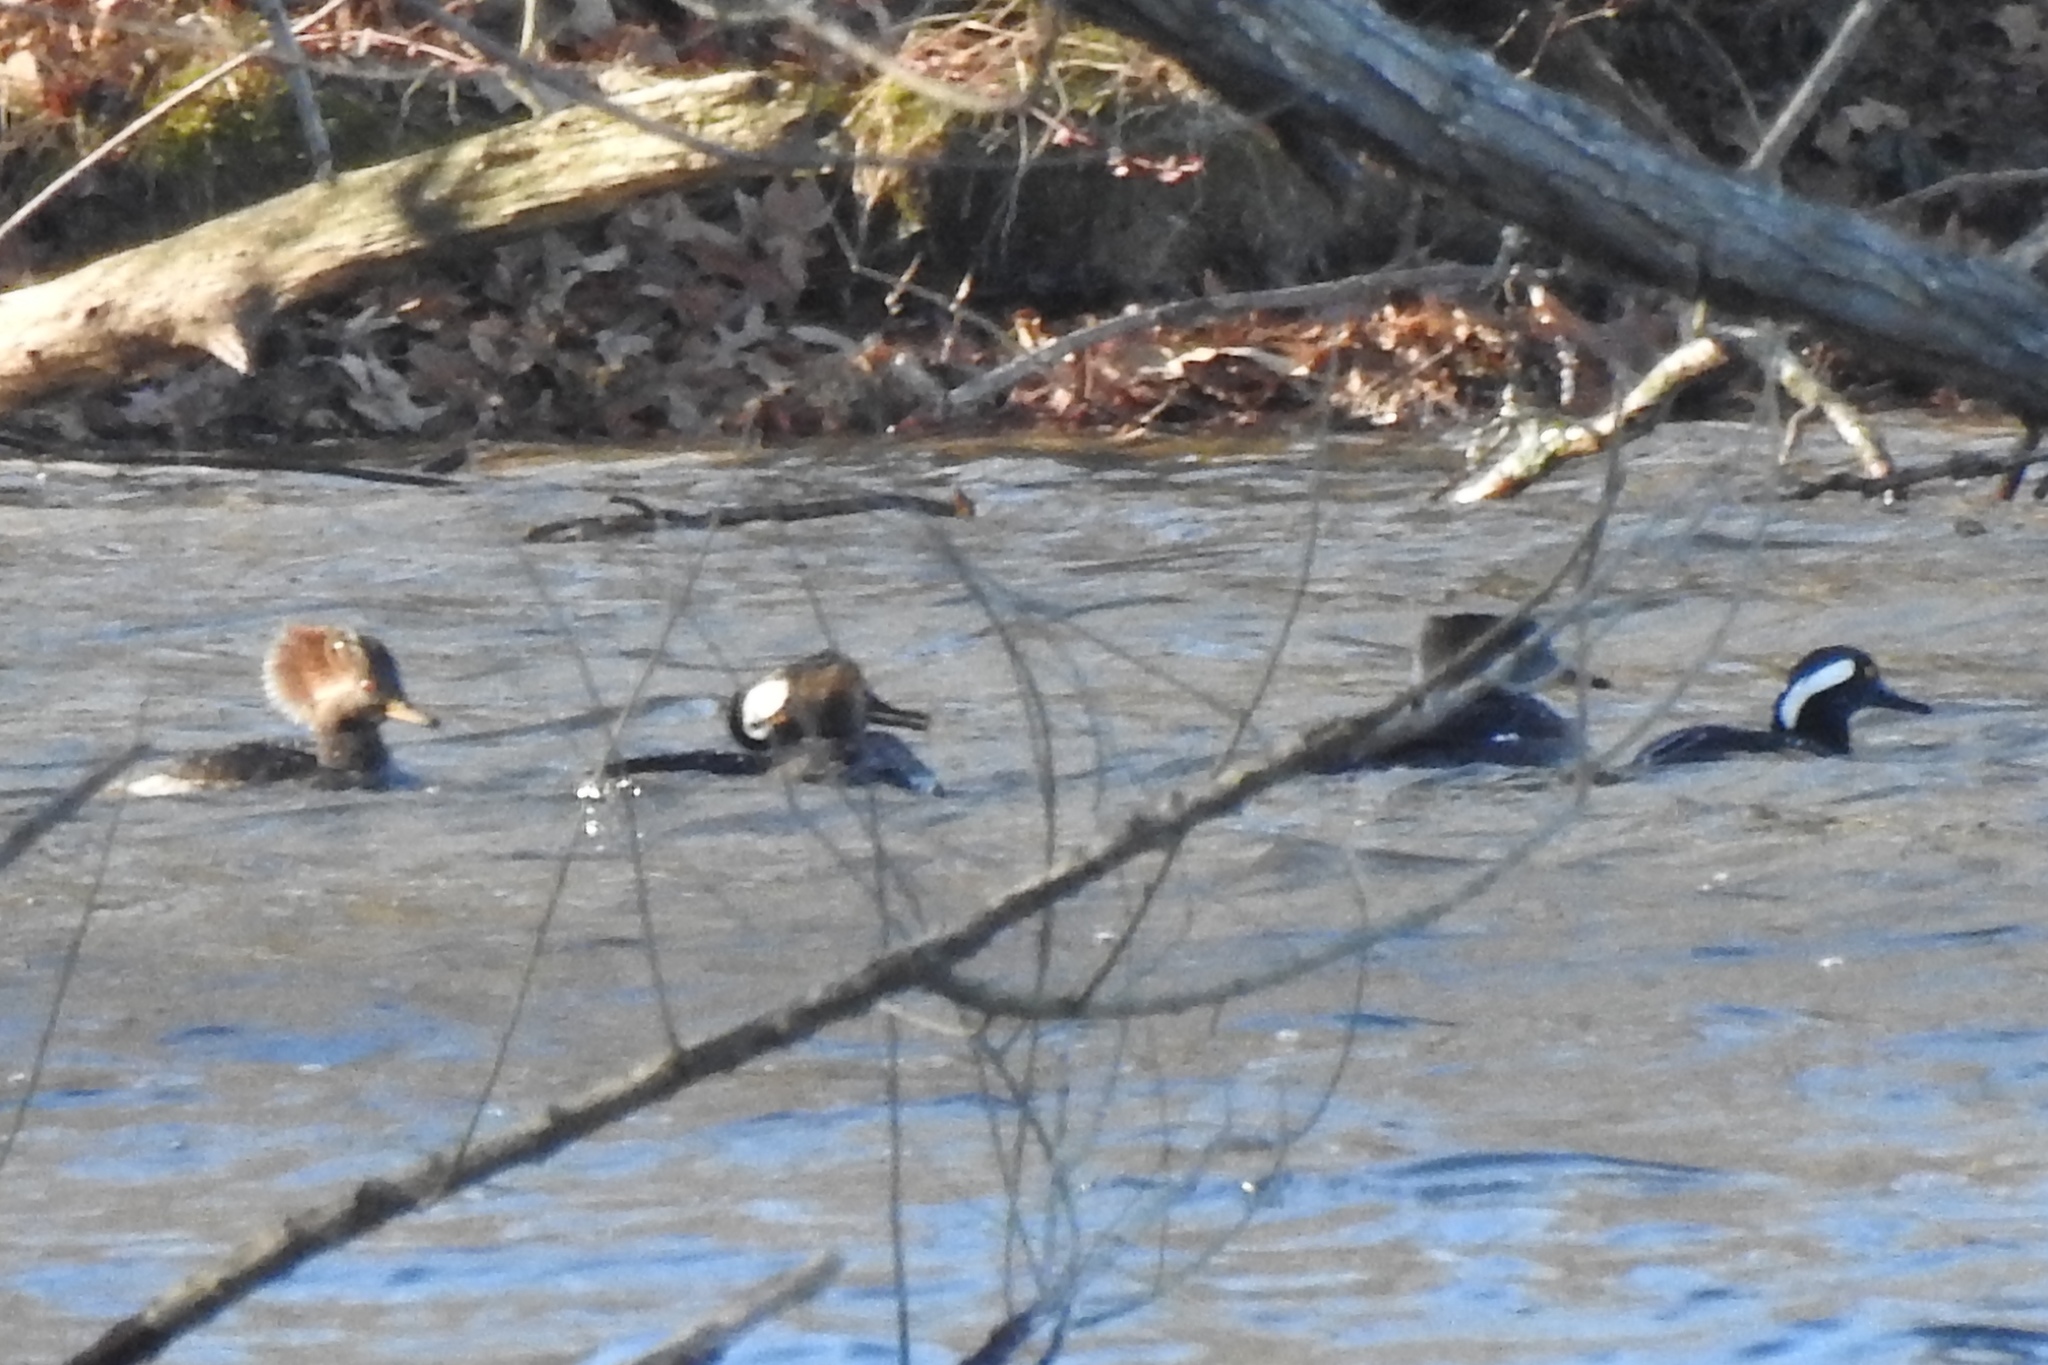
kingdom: Animalia
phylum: Chordata
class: Aves
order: Anseriformes
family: Anatidae
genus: Lophodytes
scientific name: Lophodytes cucullatus
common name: Hooded merganser
